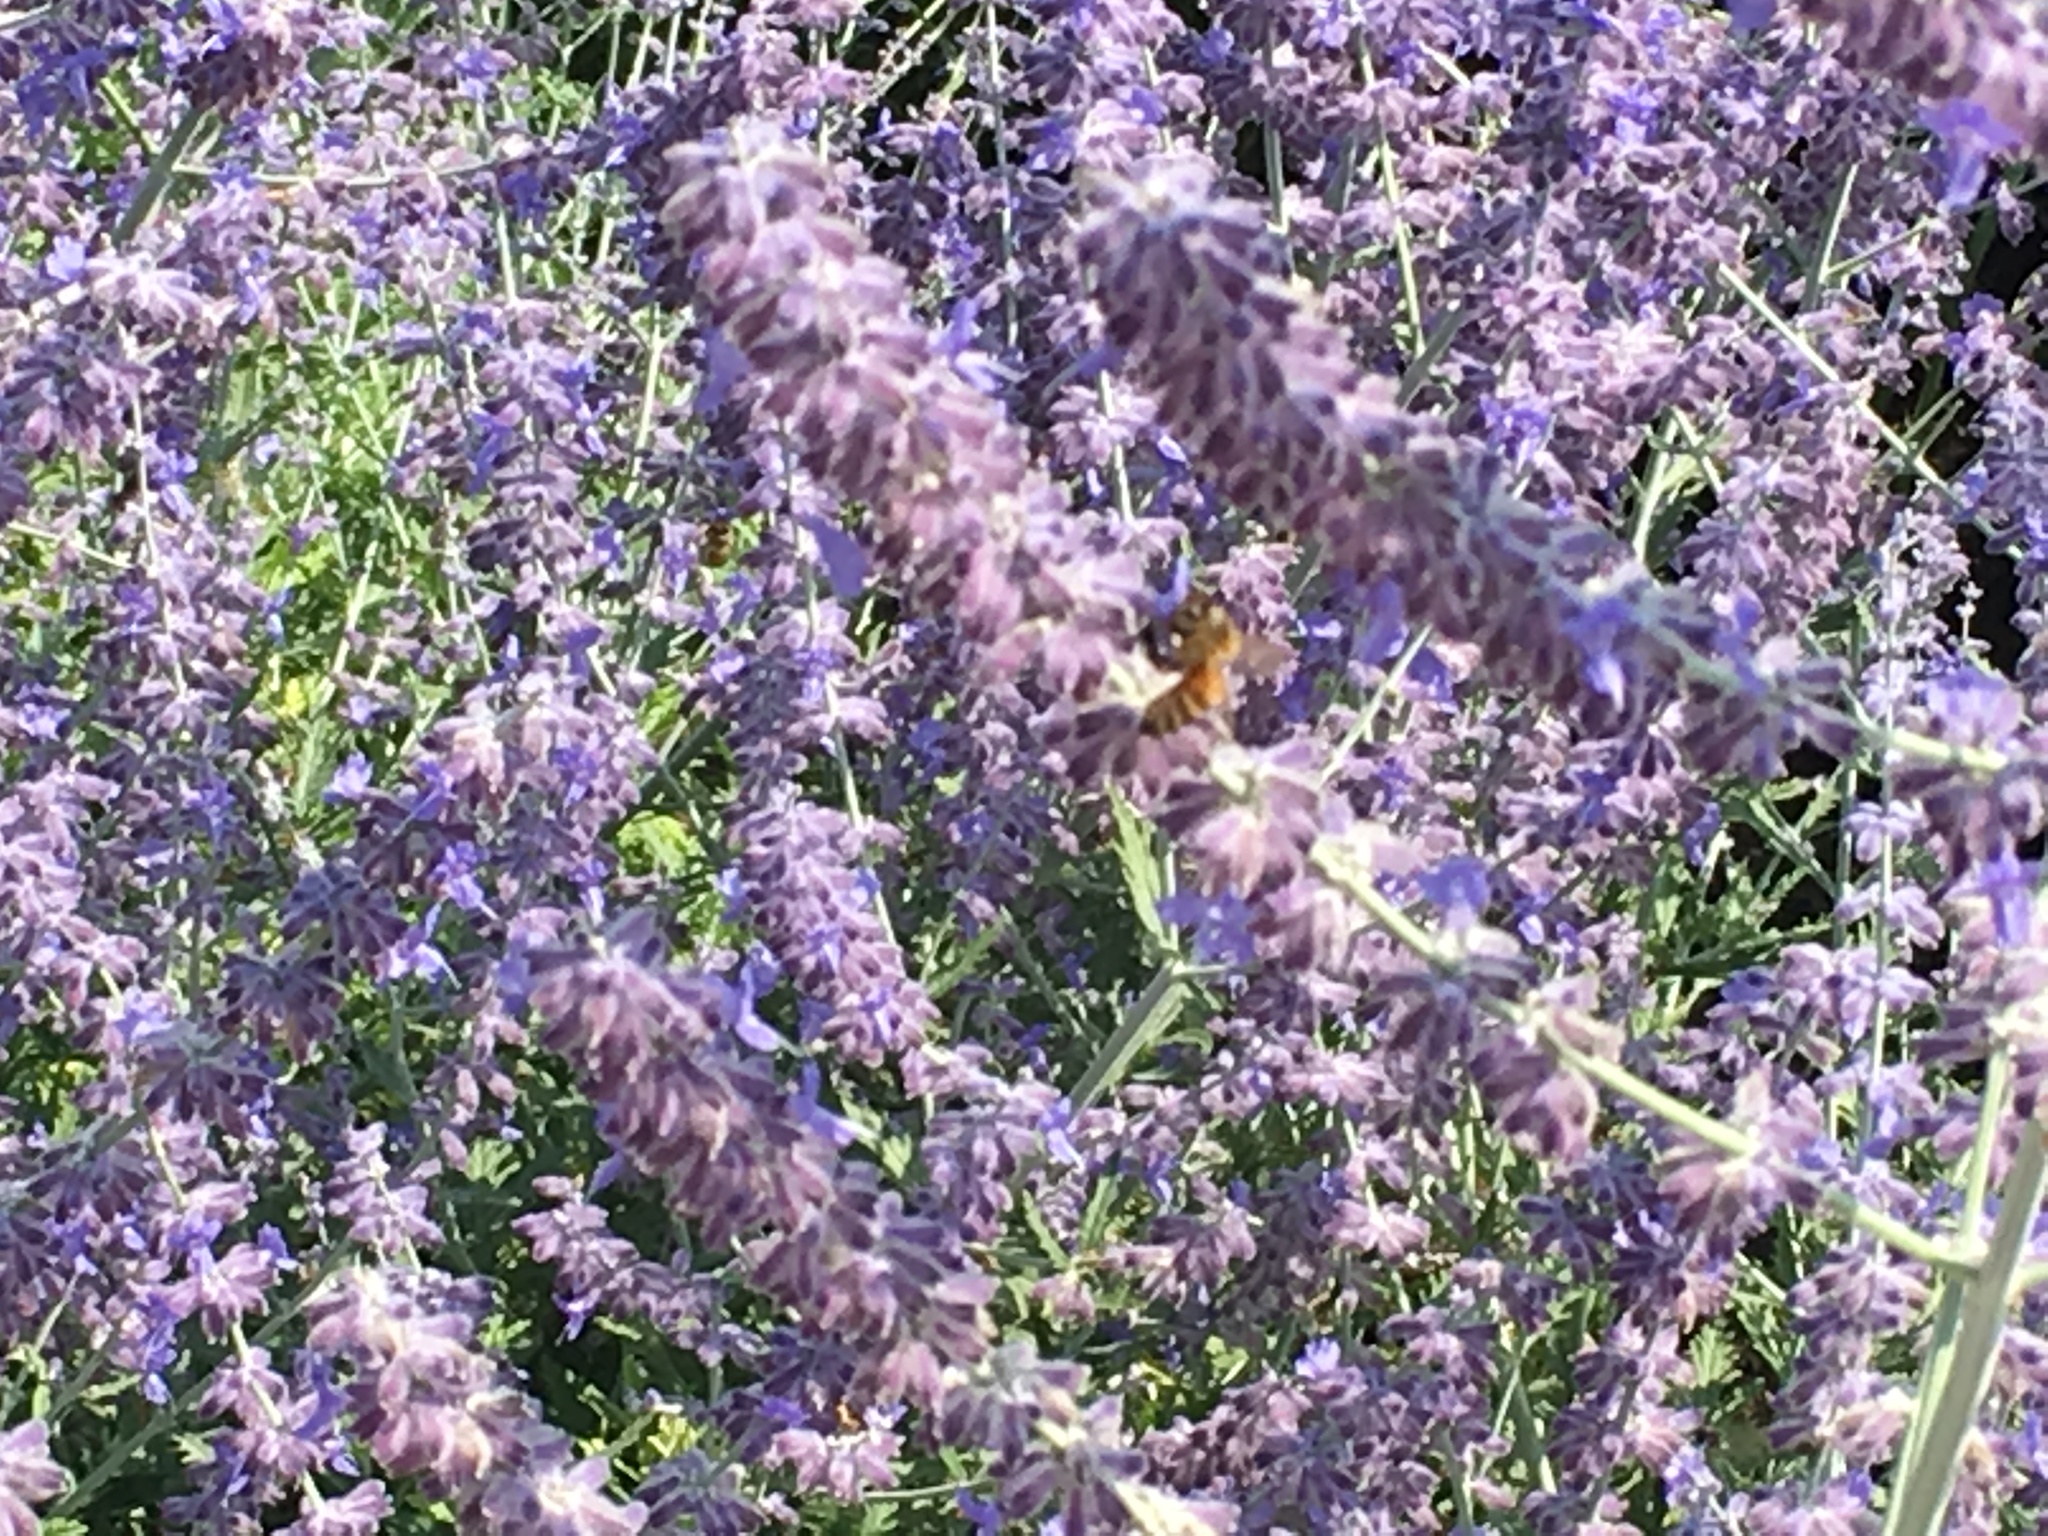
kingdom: Animalia
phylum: Arthropoda
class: Insecta
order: Hymenoptera
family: Apidae
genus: Apis
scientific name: Apis mellifera
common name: Honey bee
